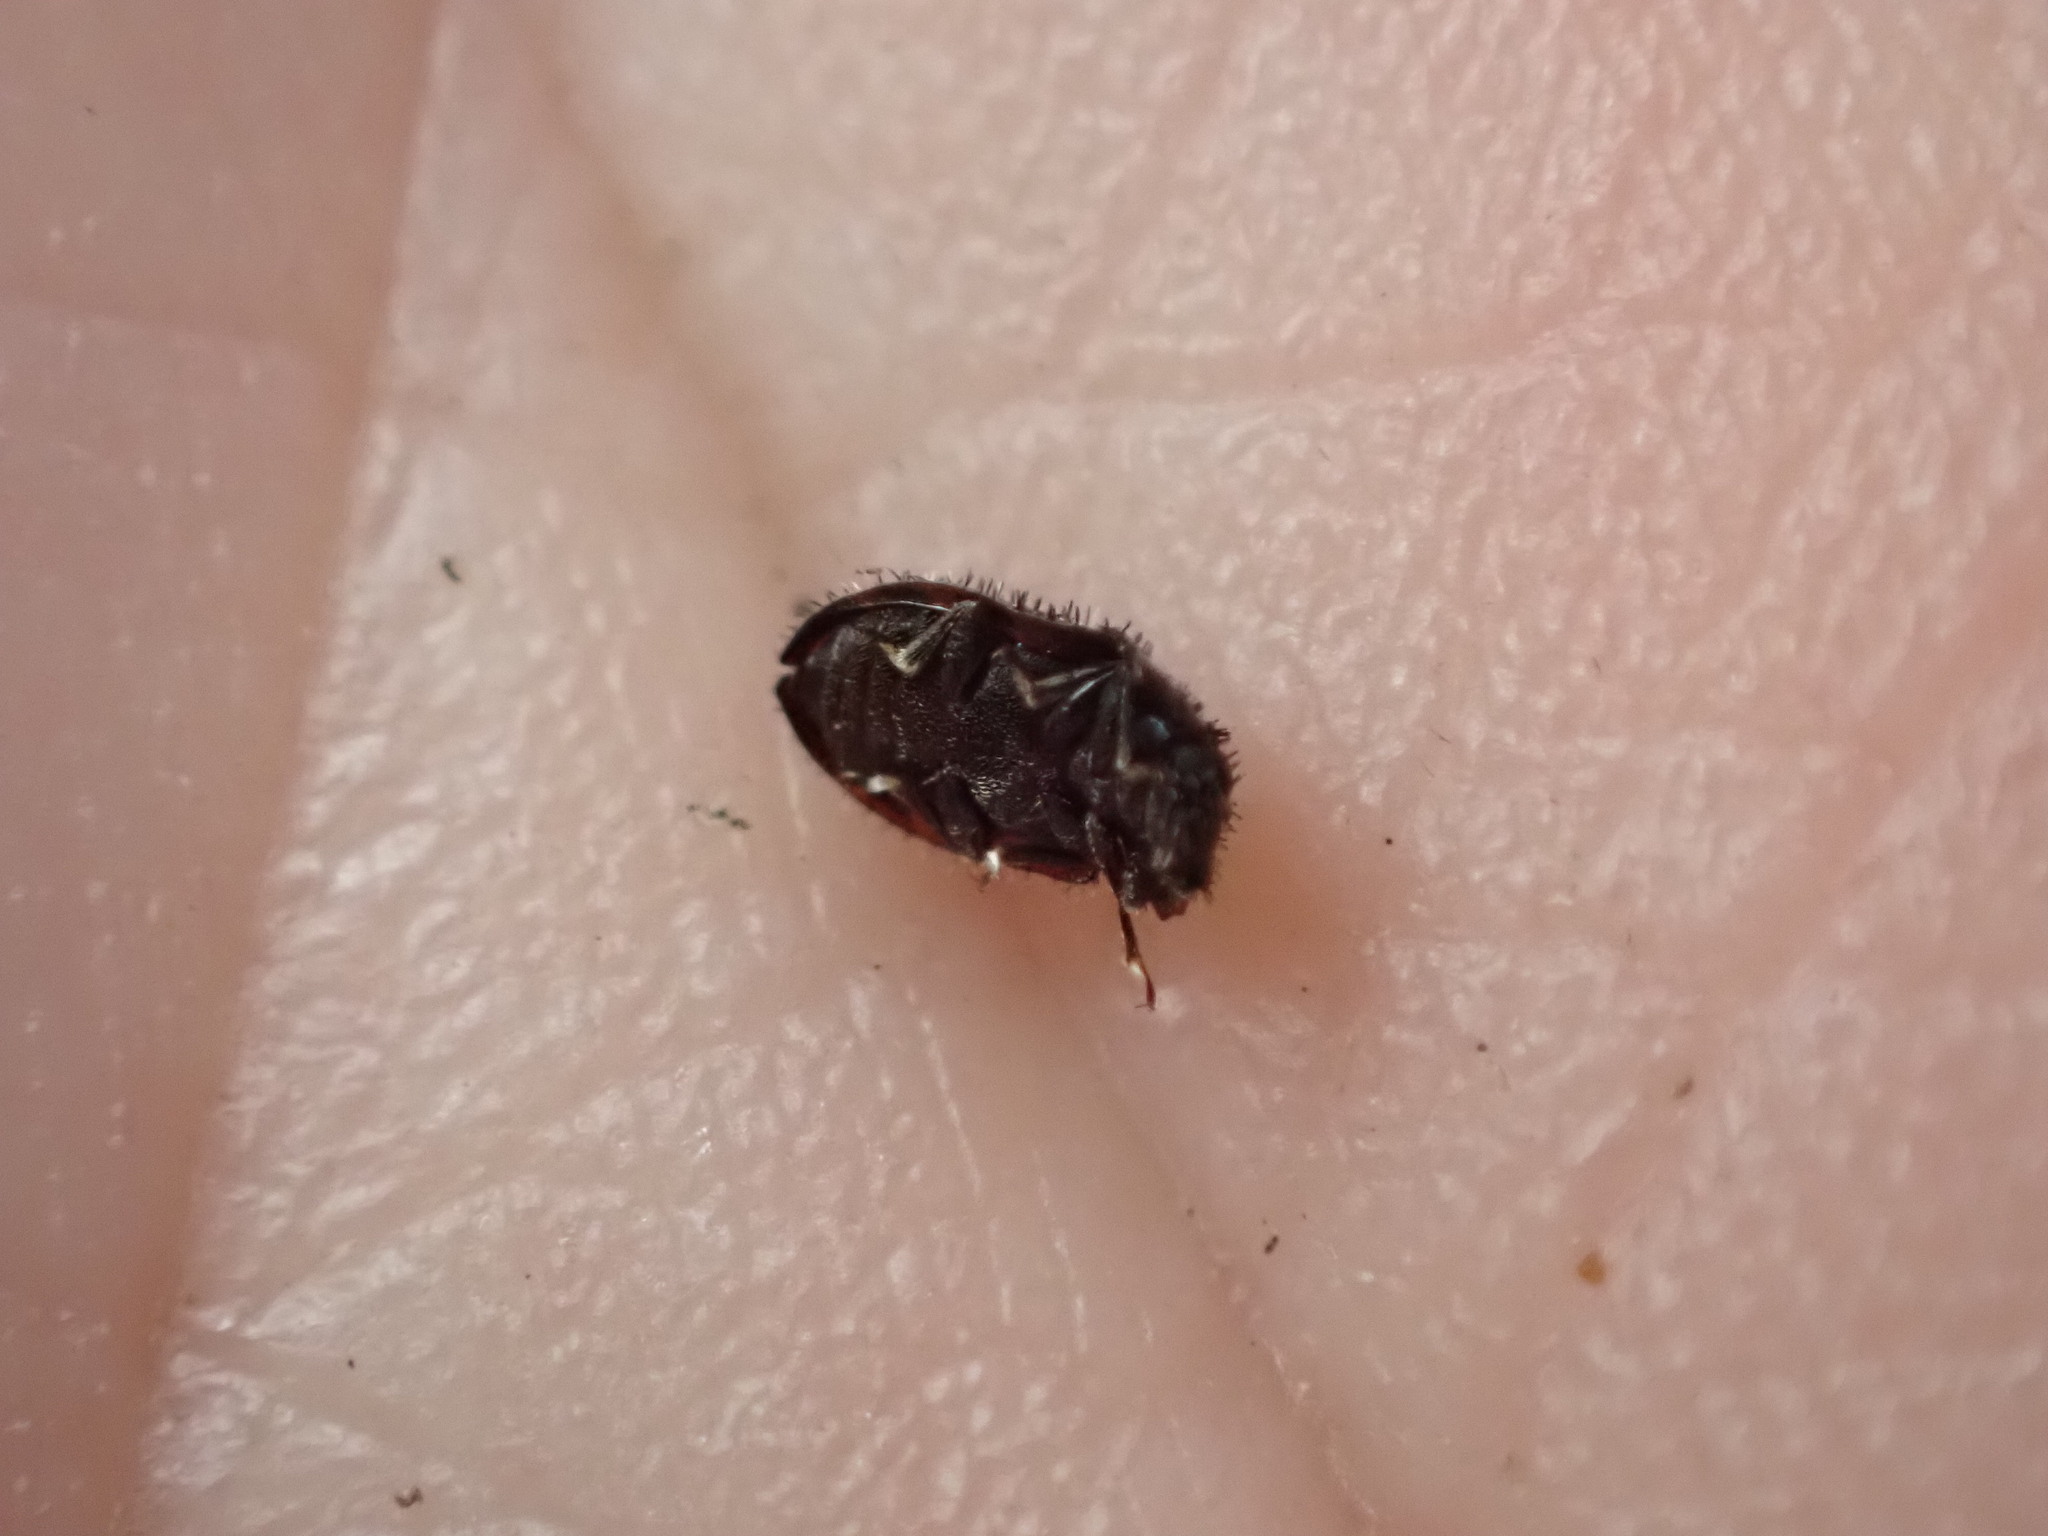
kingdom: Animalia
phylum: Arthropoda
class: Insecta
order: Coleoptera
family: Nitidulidae
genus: Hisparonia
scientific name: Hisparonia
